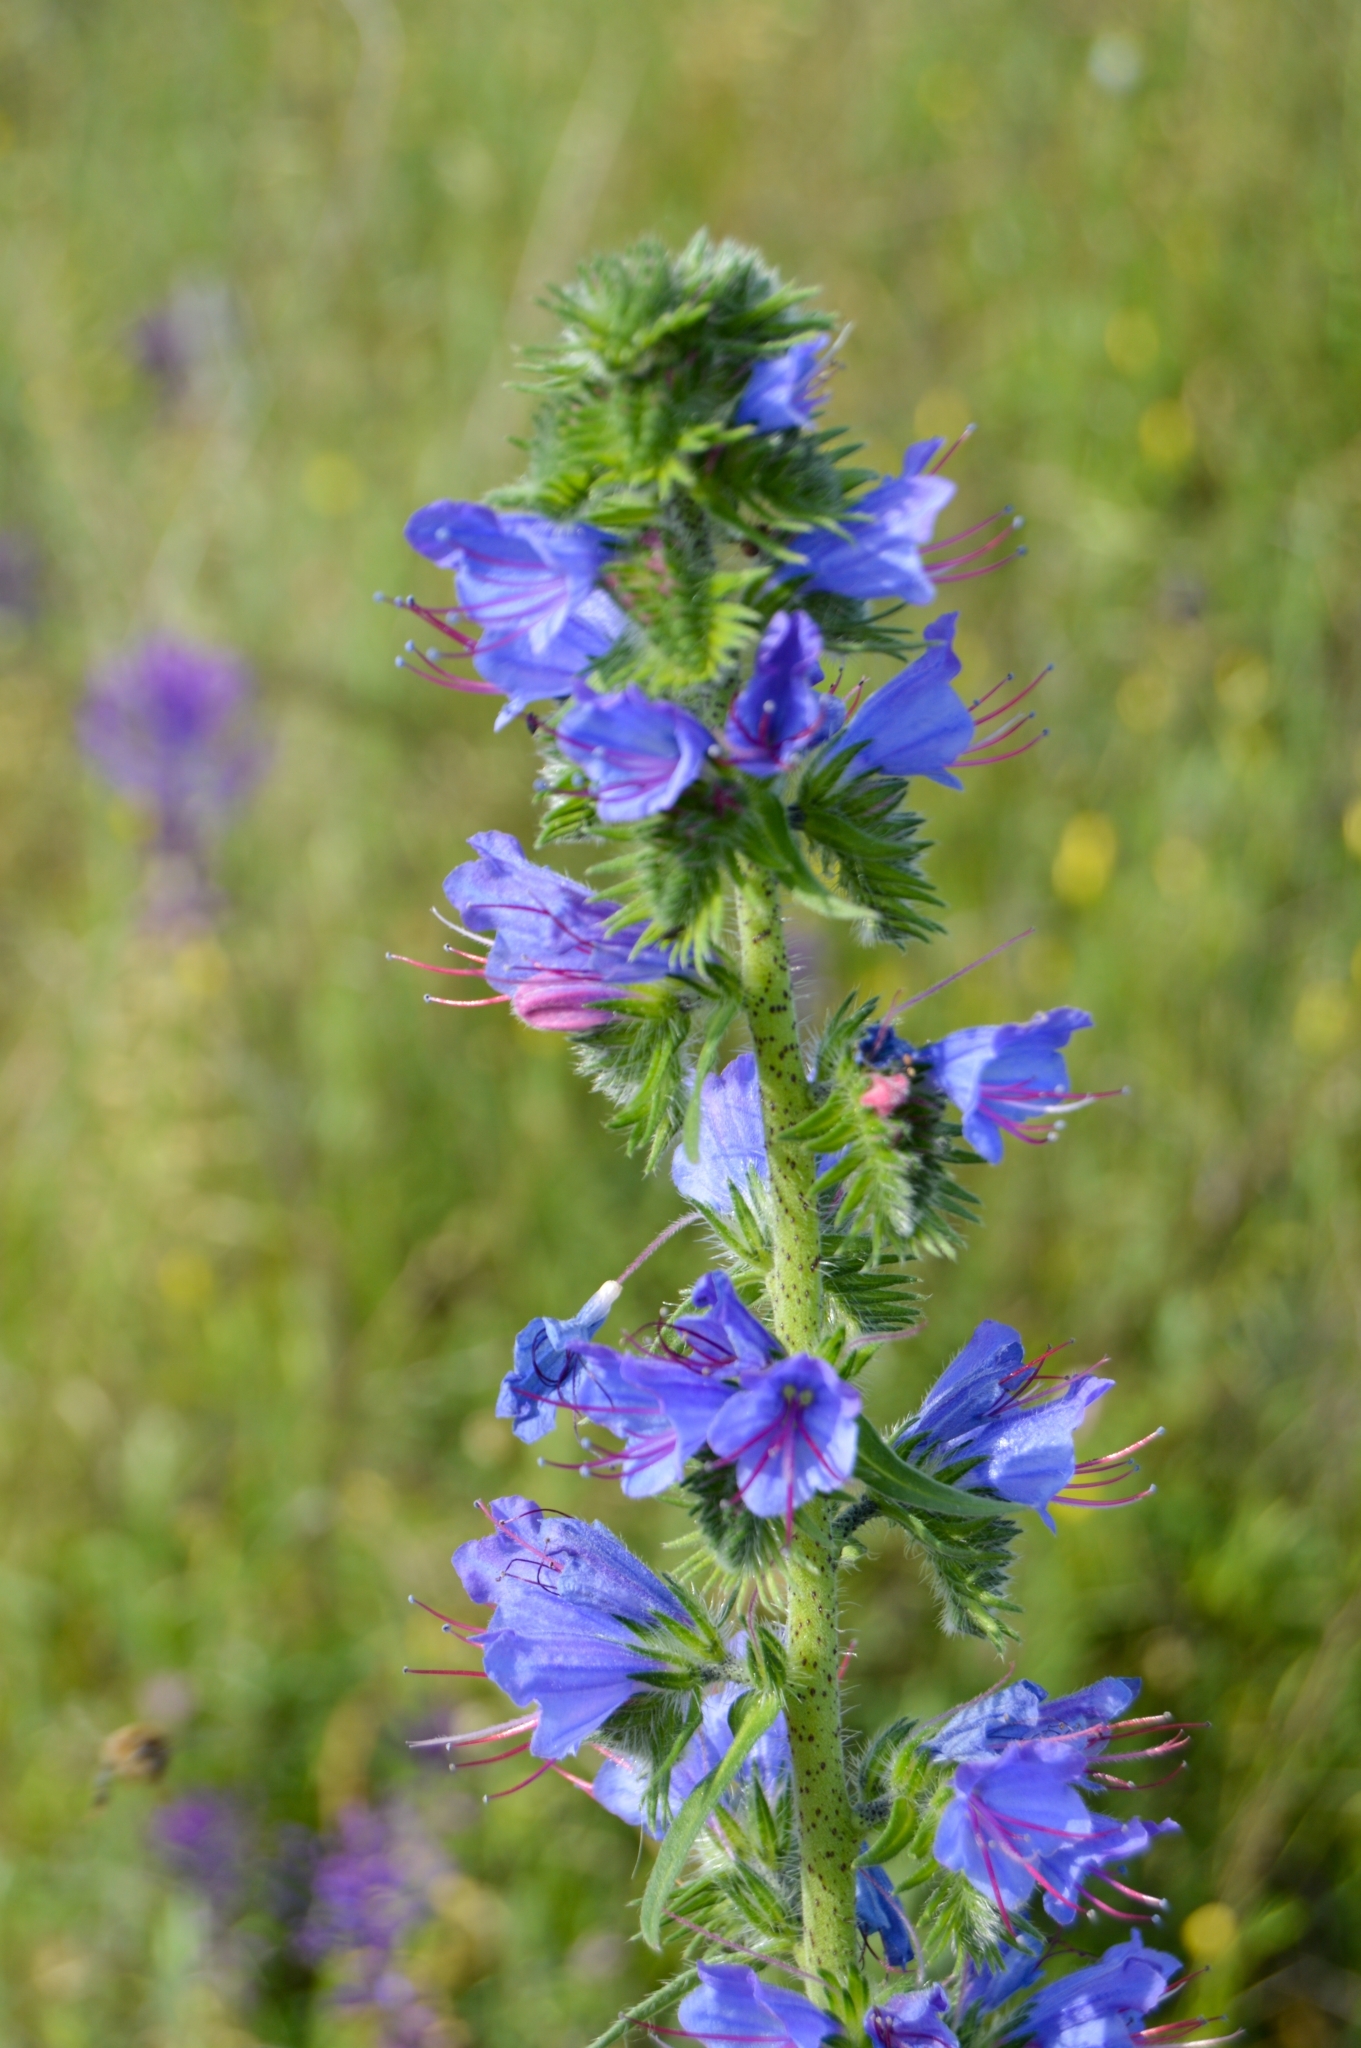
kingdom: Plantae
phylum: Tracheophyta
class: Magnoliopsida
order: Boraginales
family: Boraginaceae
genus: Echium
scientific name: Echium vulgare
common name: Common viper's bugloss
